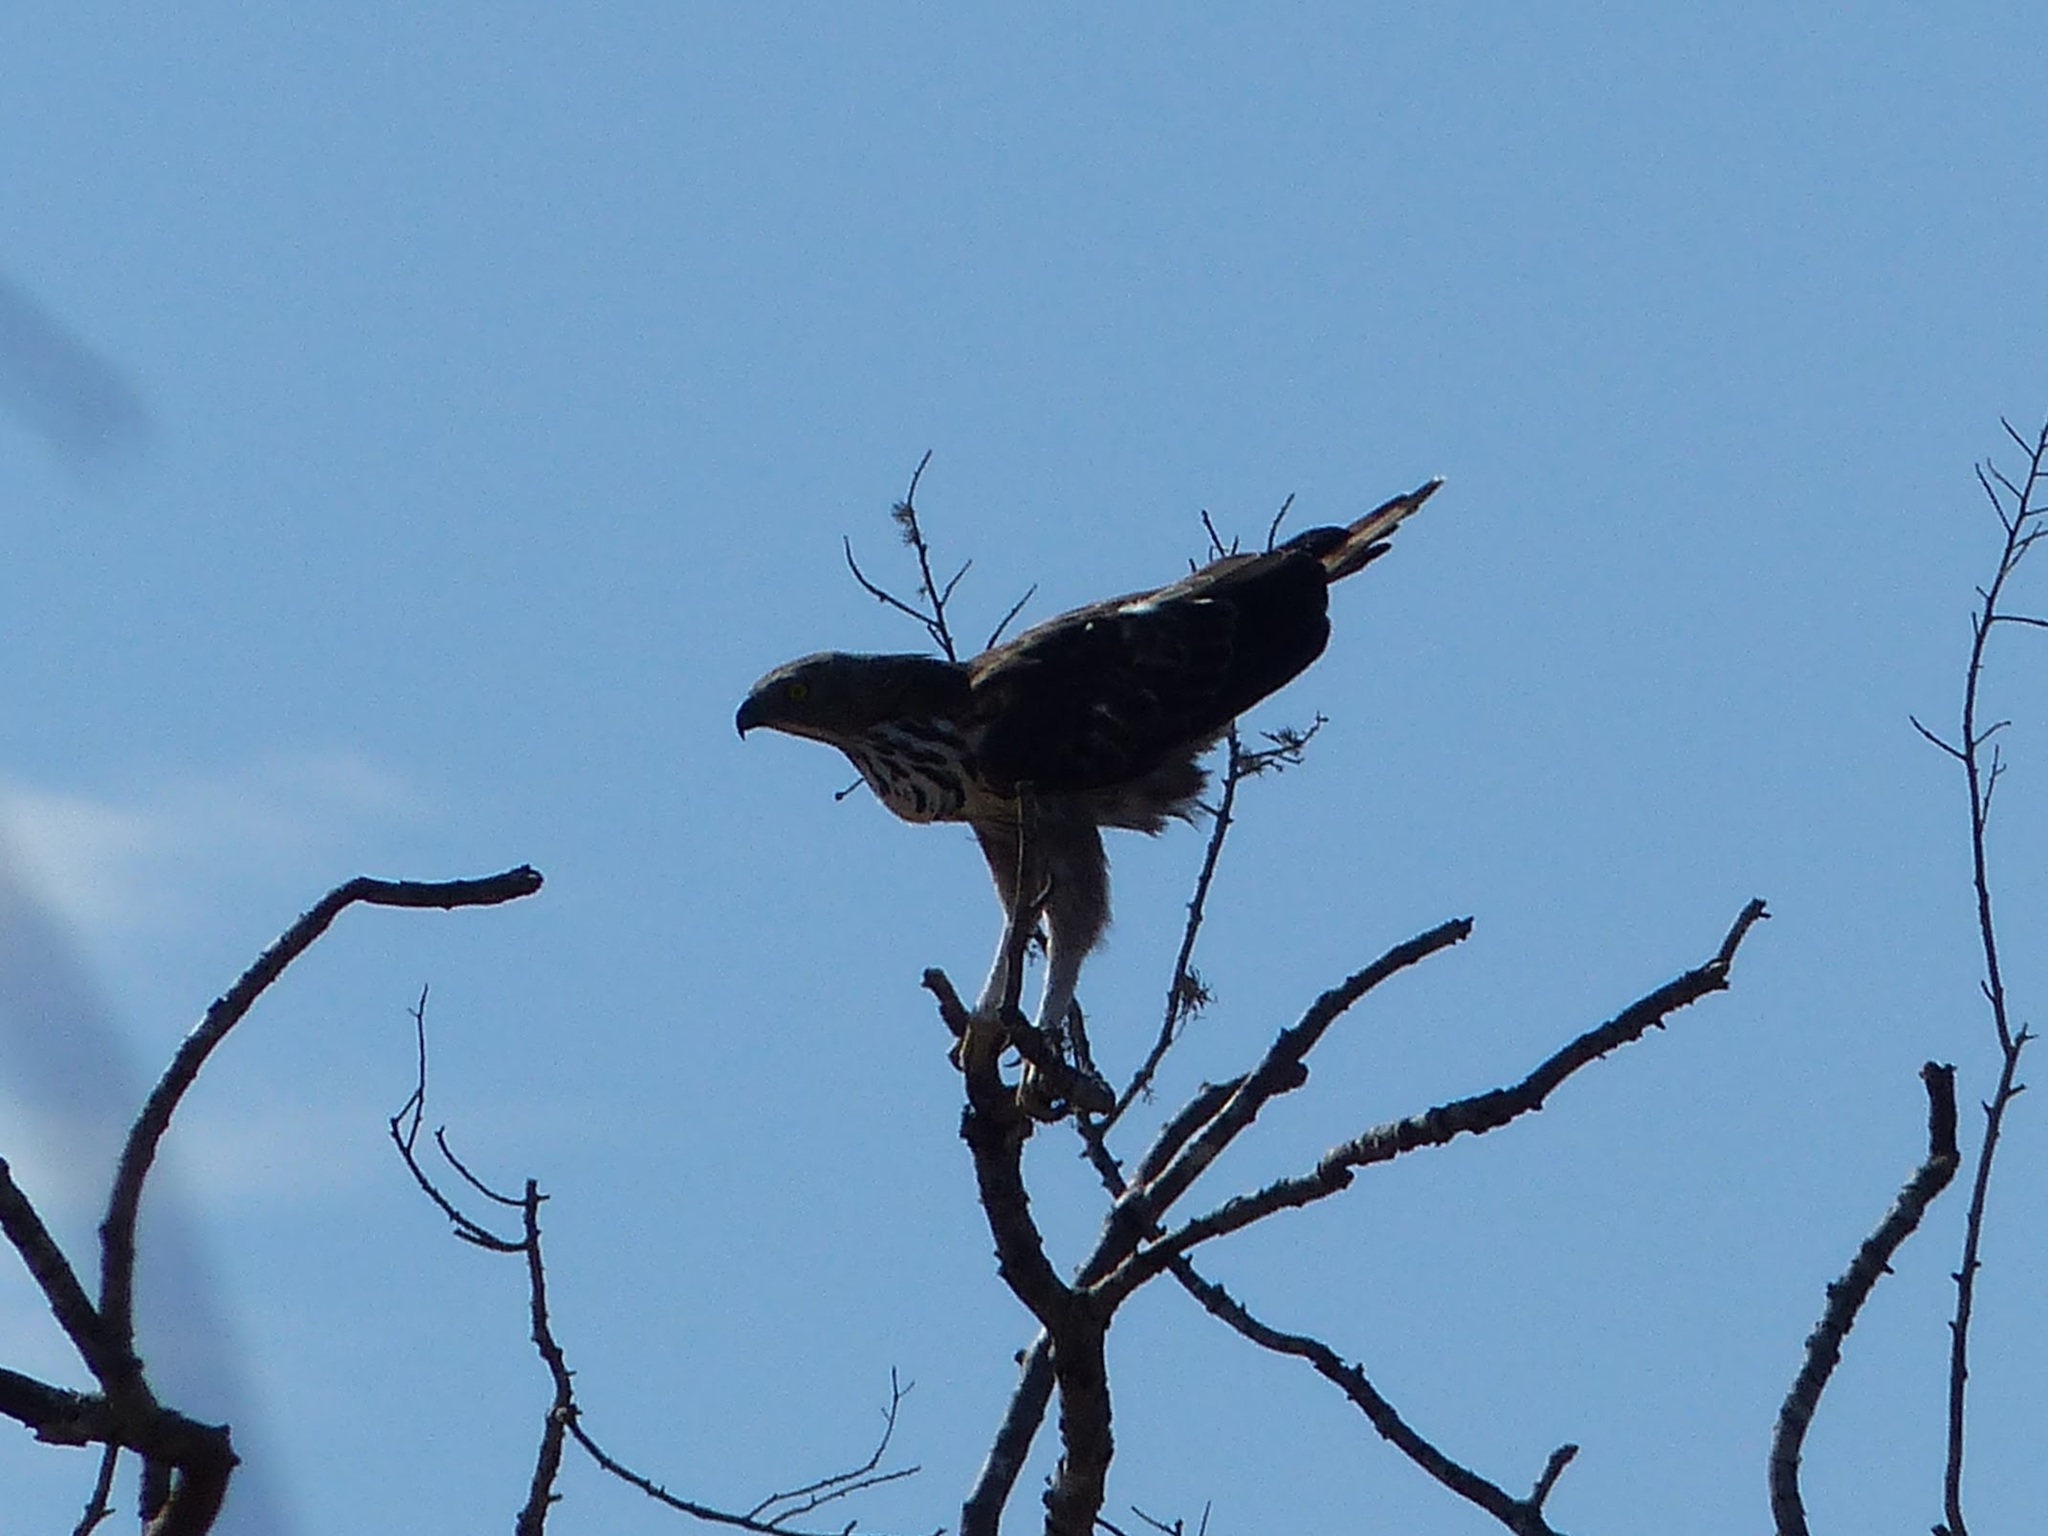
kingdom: Animalia
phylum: Chordata
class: Aves
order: Accipitriformes
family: Accipitridae
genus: Nisaetus
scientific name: Nisaetus cirrhatus
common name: Changeable hawk-eagle
